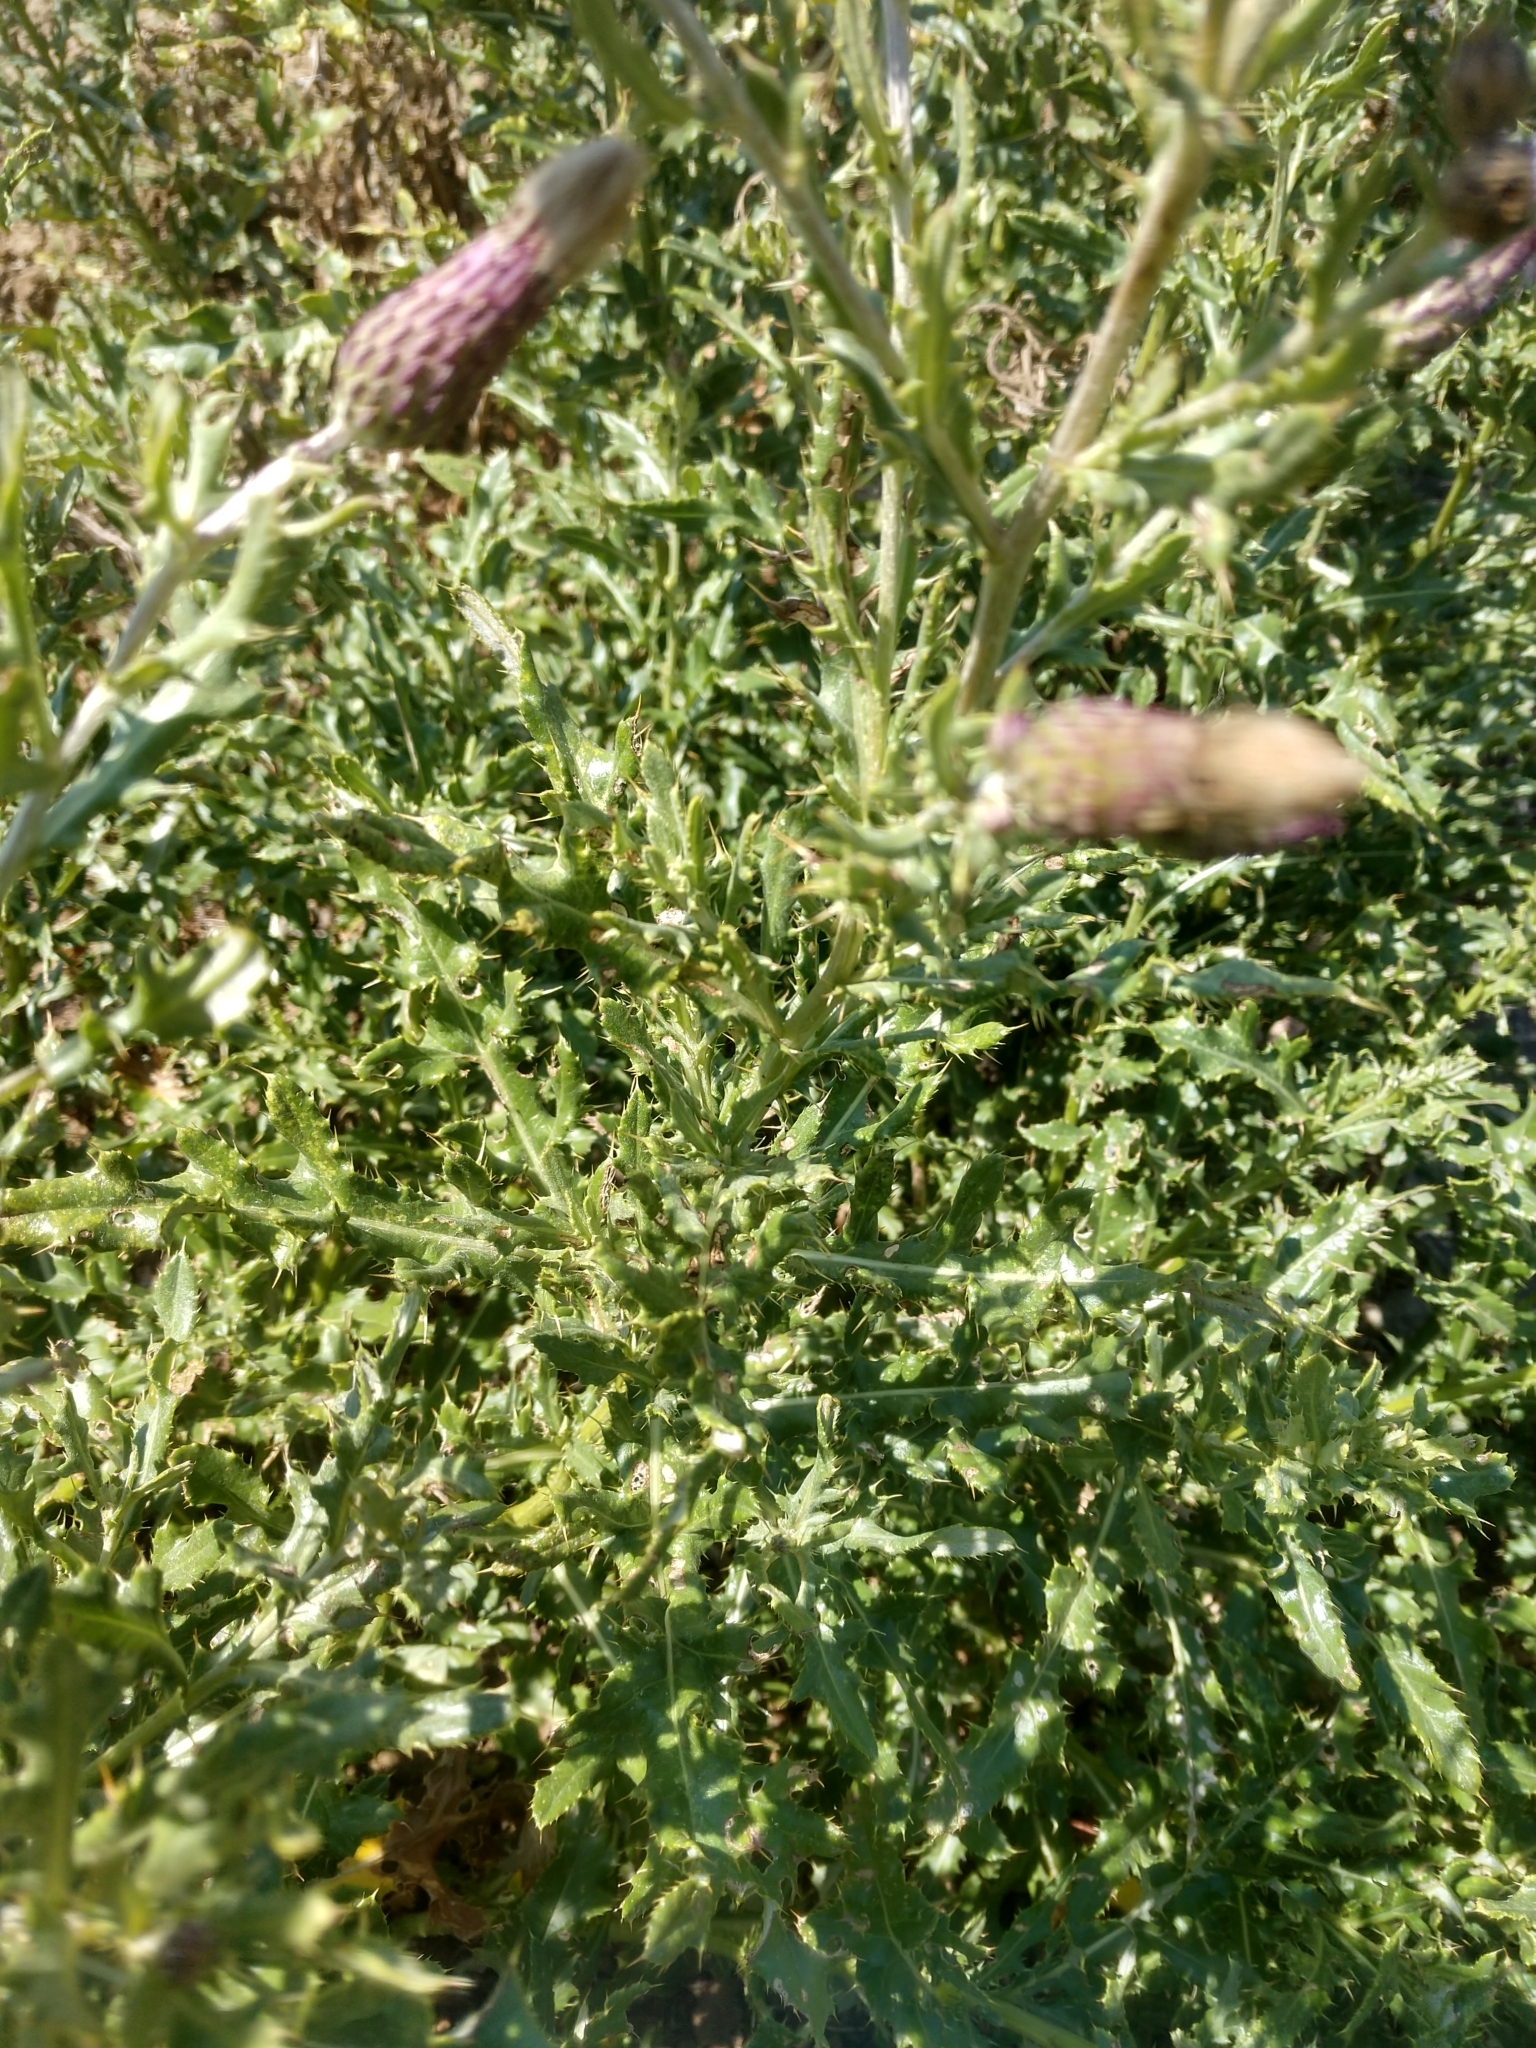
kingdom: Plantae
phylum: Tracheophyta
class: Magnoliopsida
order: Asterales
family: Asteraceae
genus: Cirsium
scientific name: Cirsium arvense
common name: Creeping thistle
